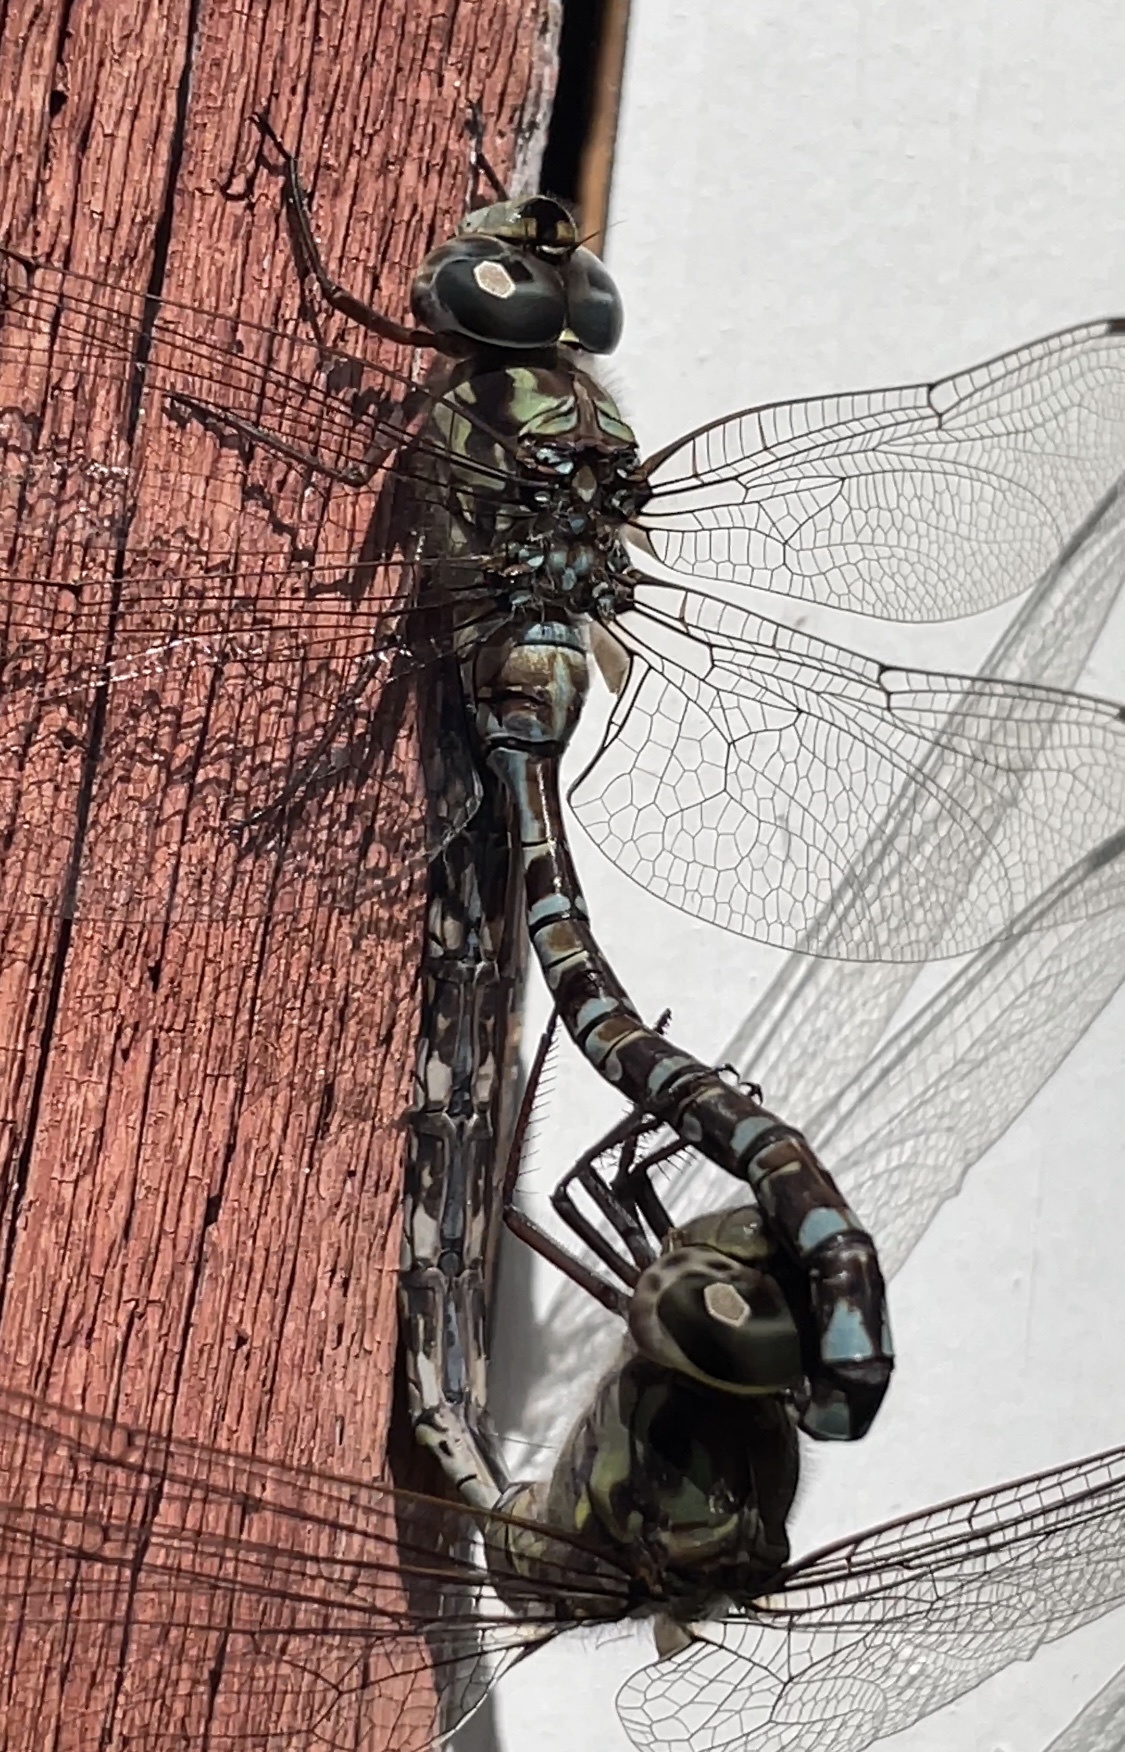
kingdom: Animalia
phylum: Arthropoda
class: Insecta
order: Odonata
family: Aeshnidae
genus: Aeshna
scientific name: Aeshna clepsydra
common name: Mottled darner
